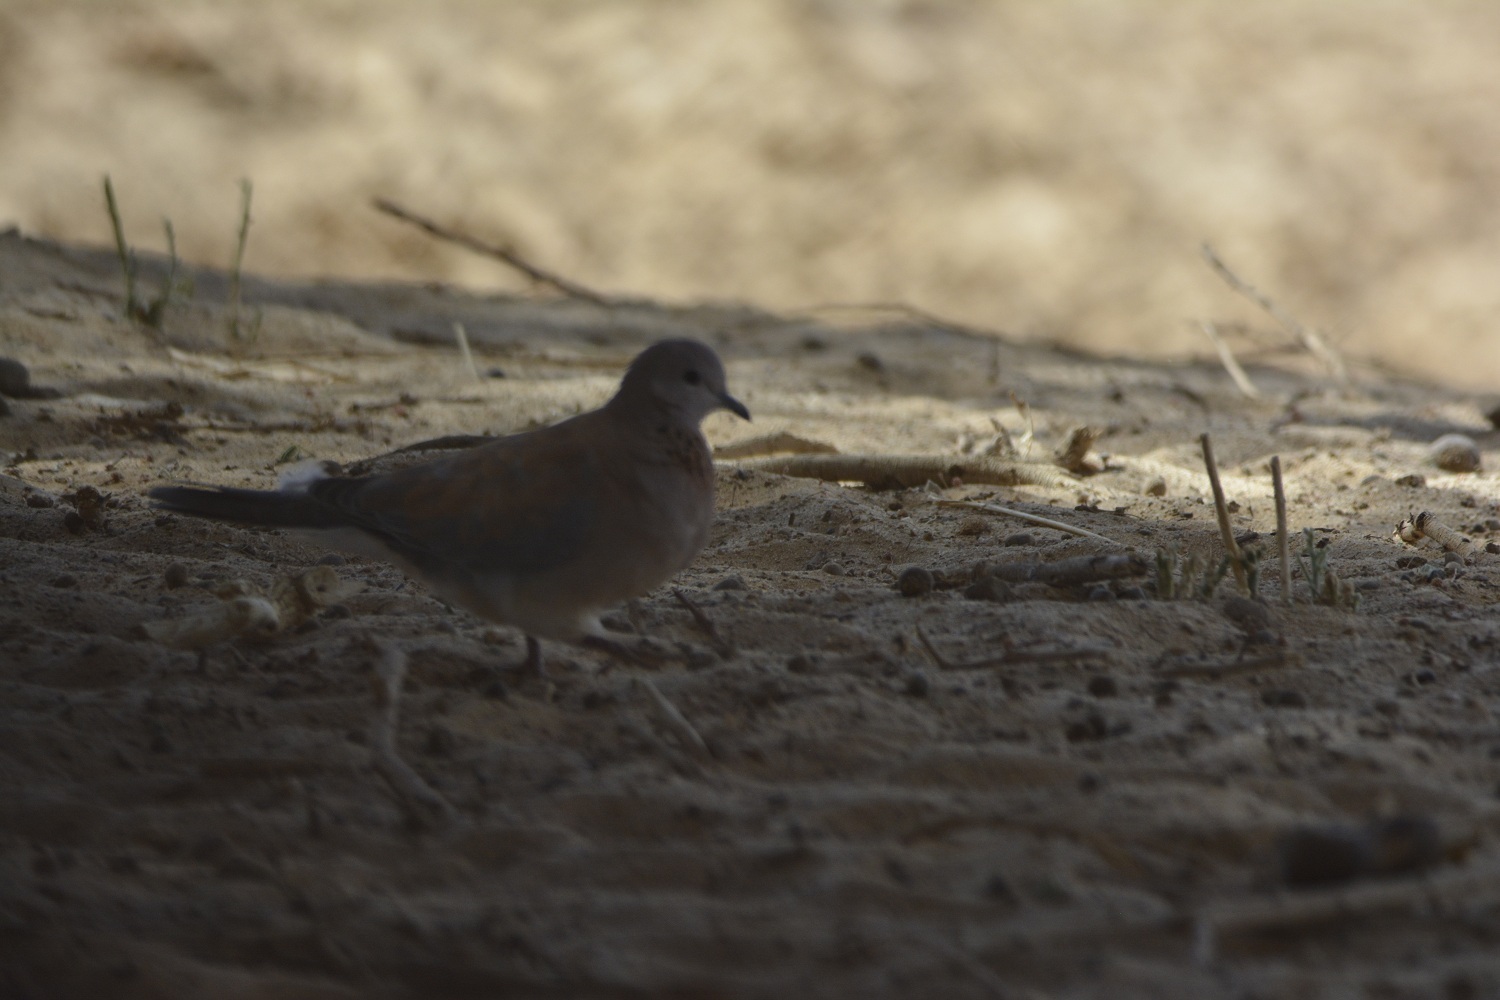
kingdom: Animalia
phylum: Chordata
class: Aves
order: Columbiformes
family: Columbidae
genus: Spilopelia
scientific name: Spilopelia senegalensis
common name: Laughing dove
